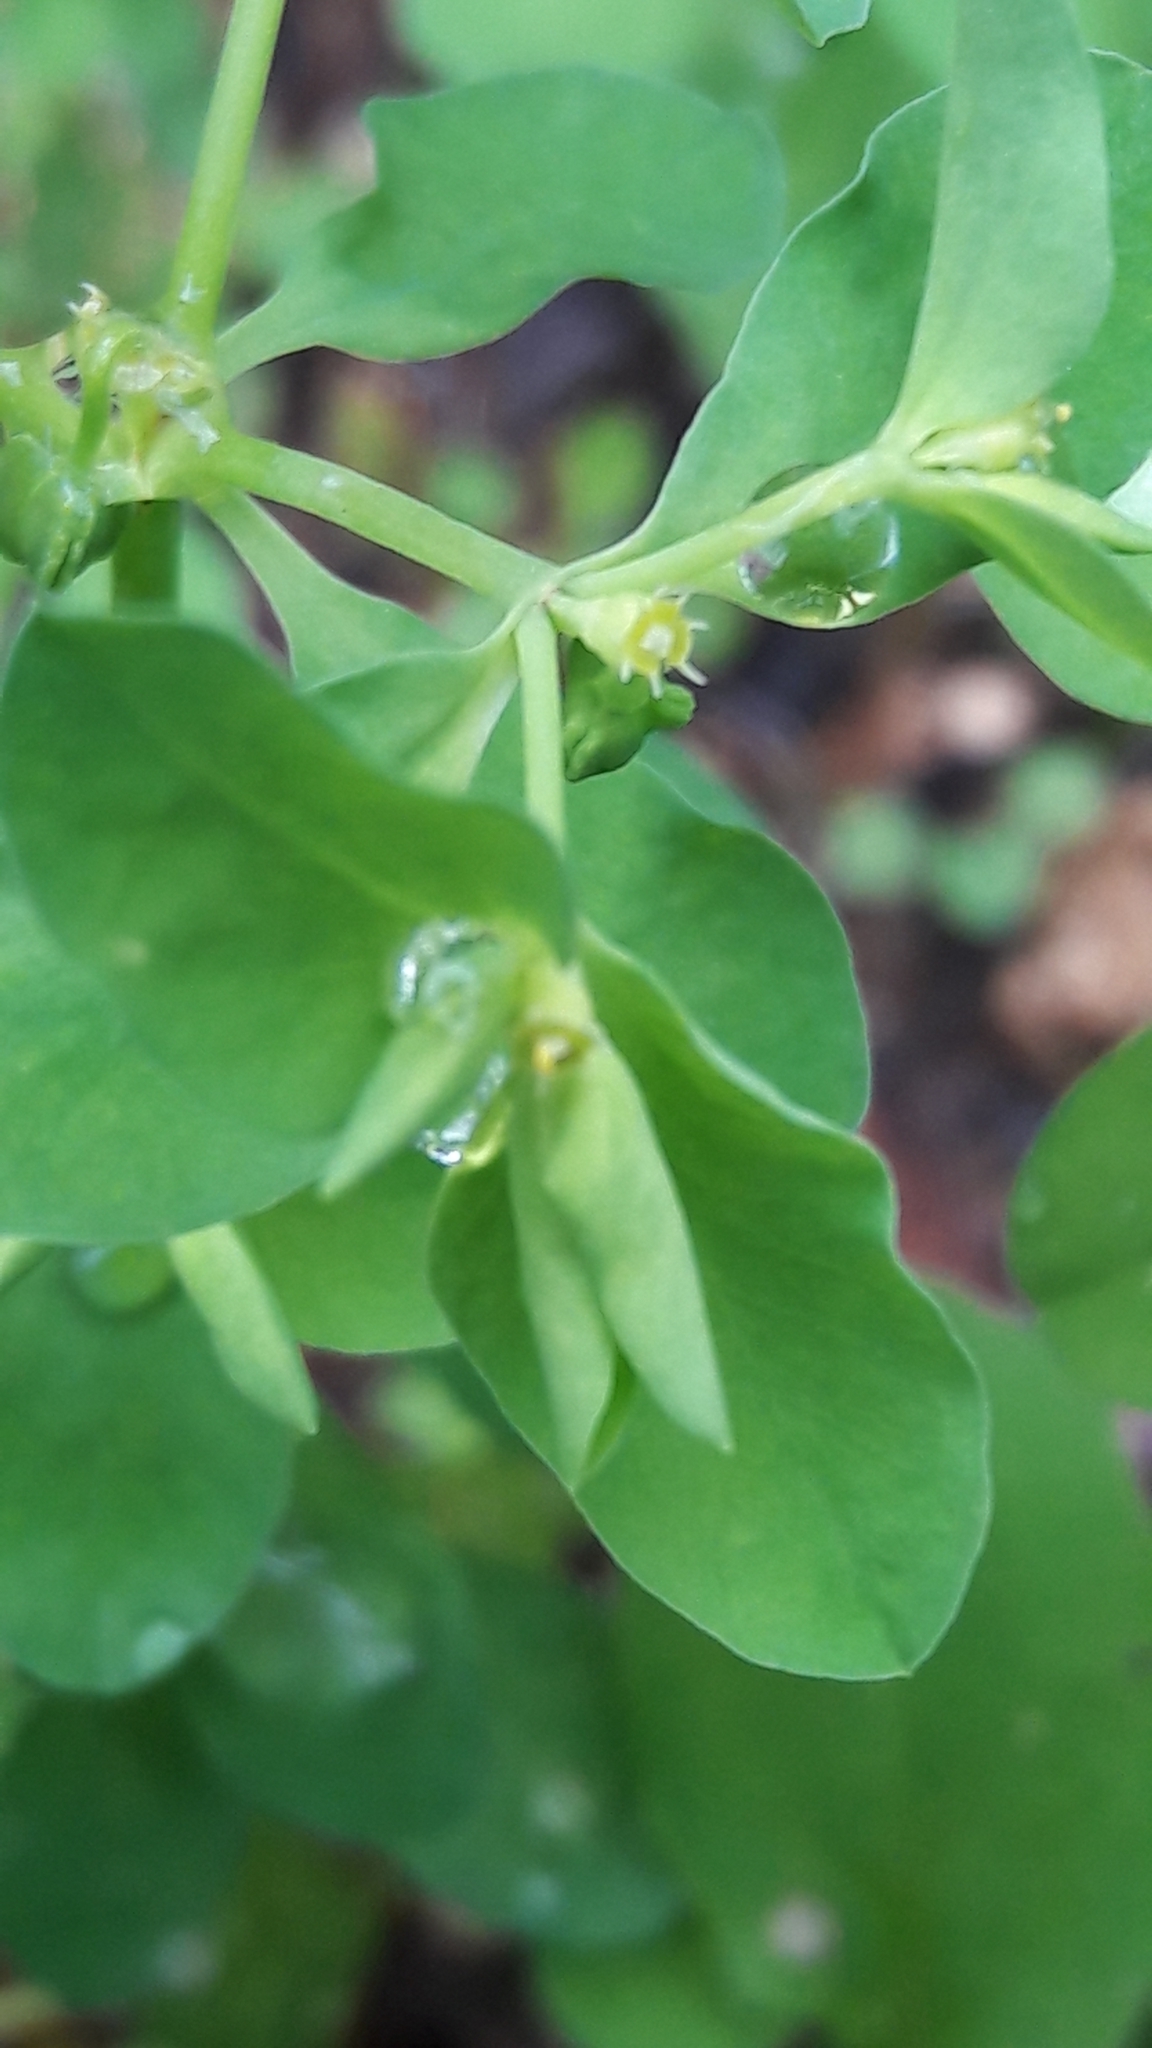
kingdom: Plantae
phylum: Tracheophyta
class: Magnoliopsida
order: Malpighiales
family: Euphorbiaceae
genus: Euphorbia
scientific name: Euphorbia peplus
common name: Petty spurge
